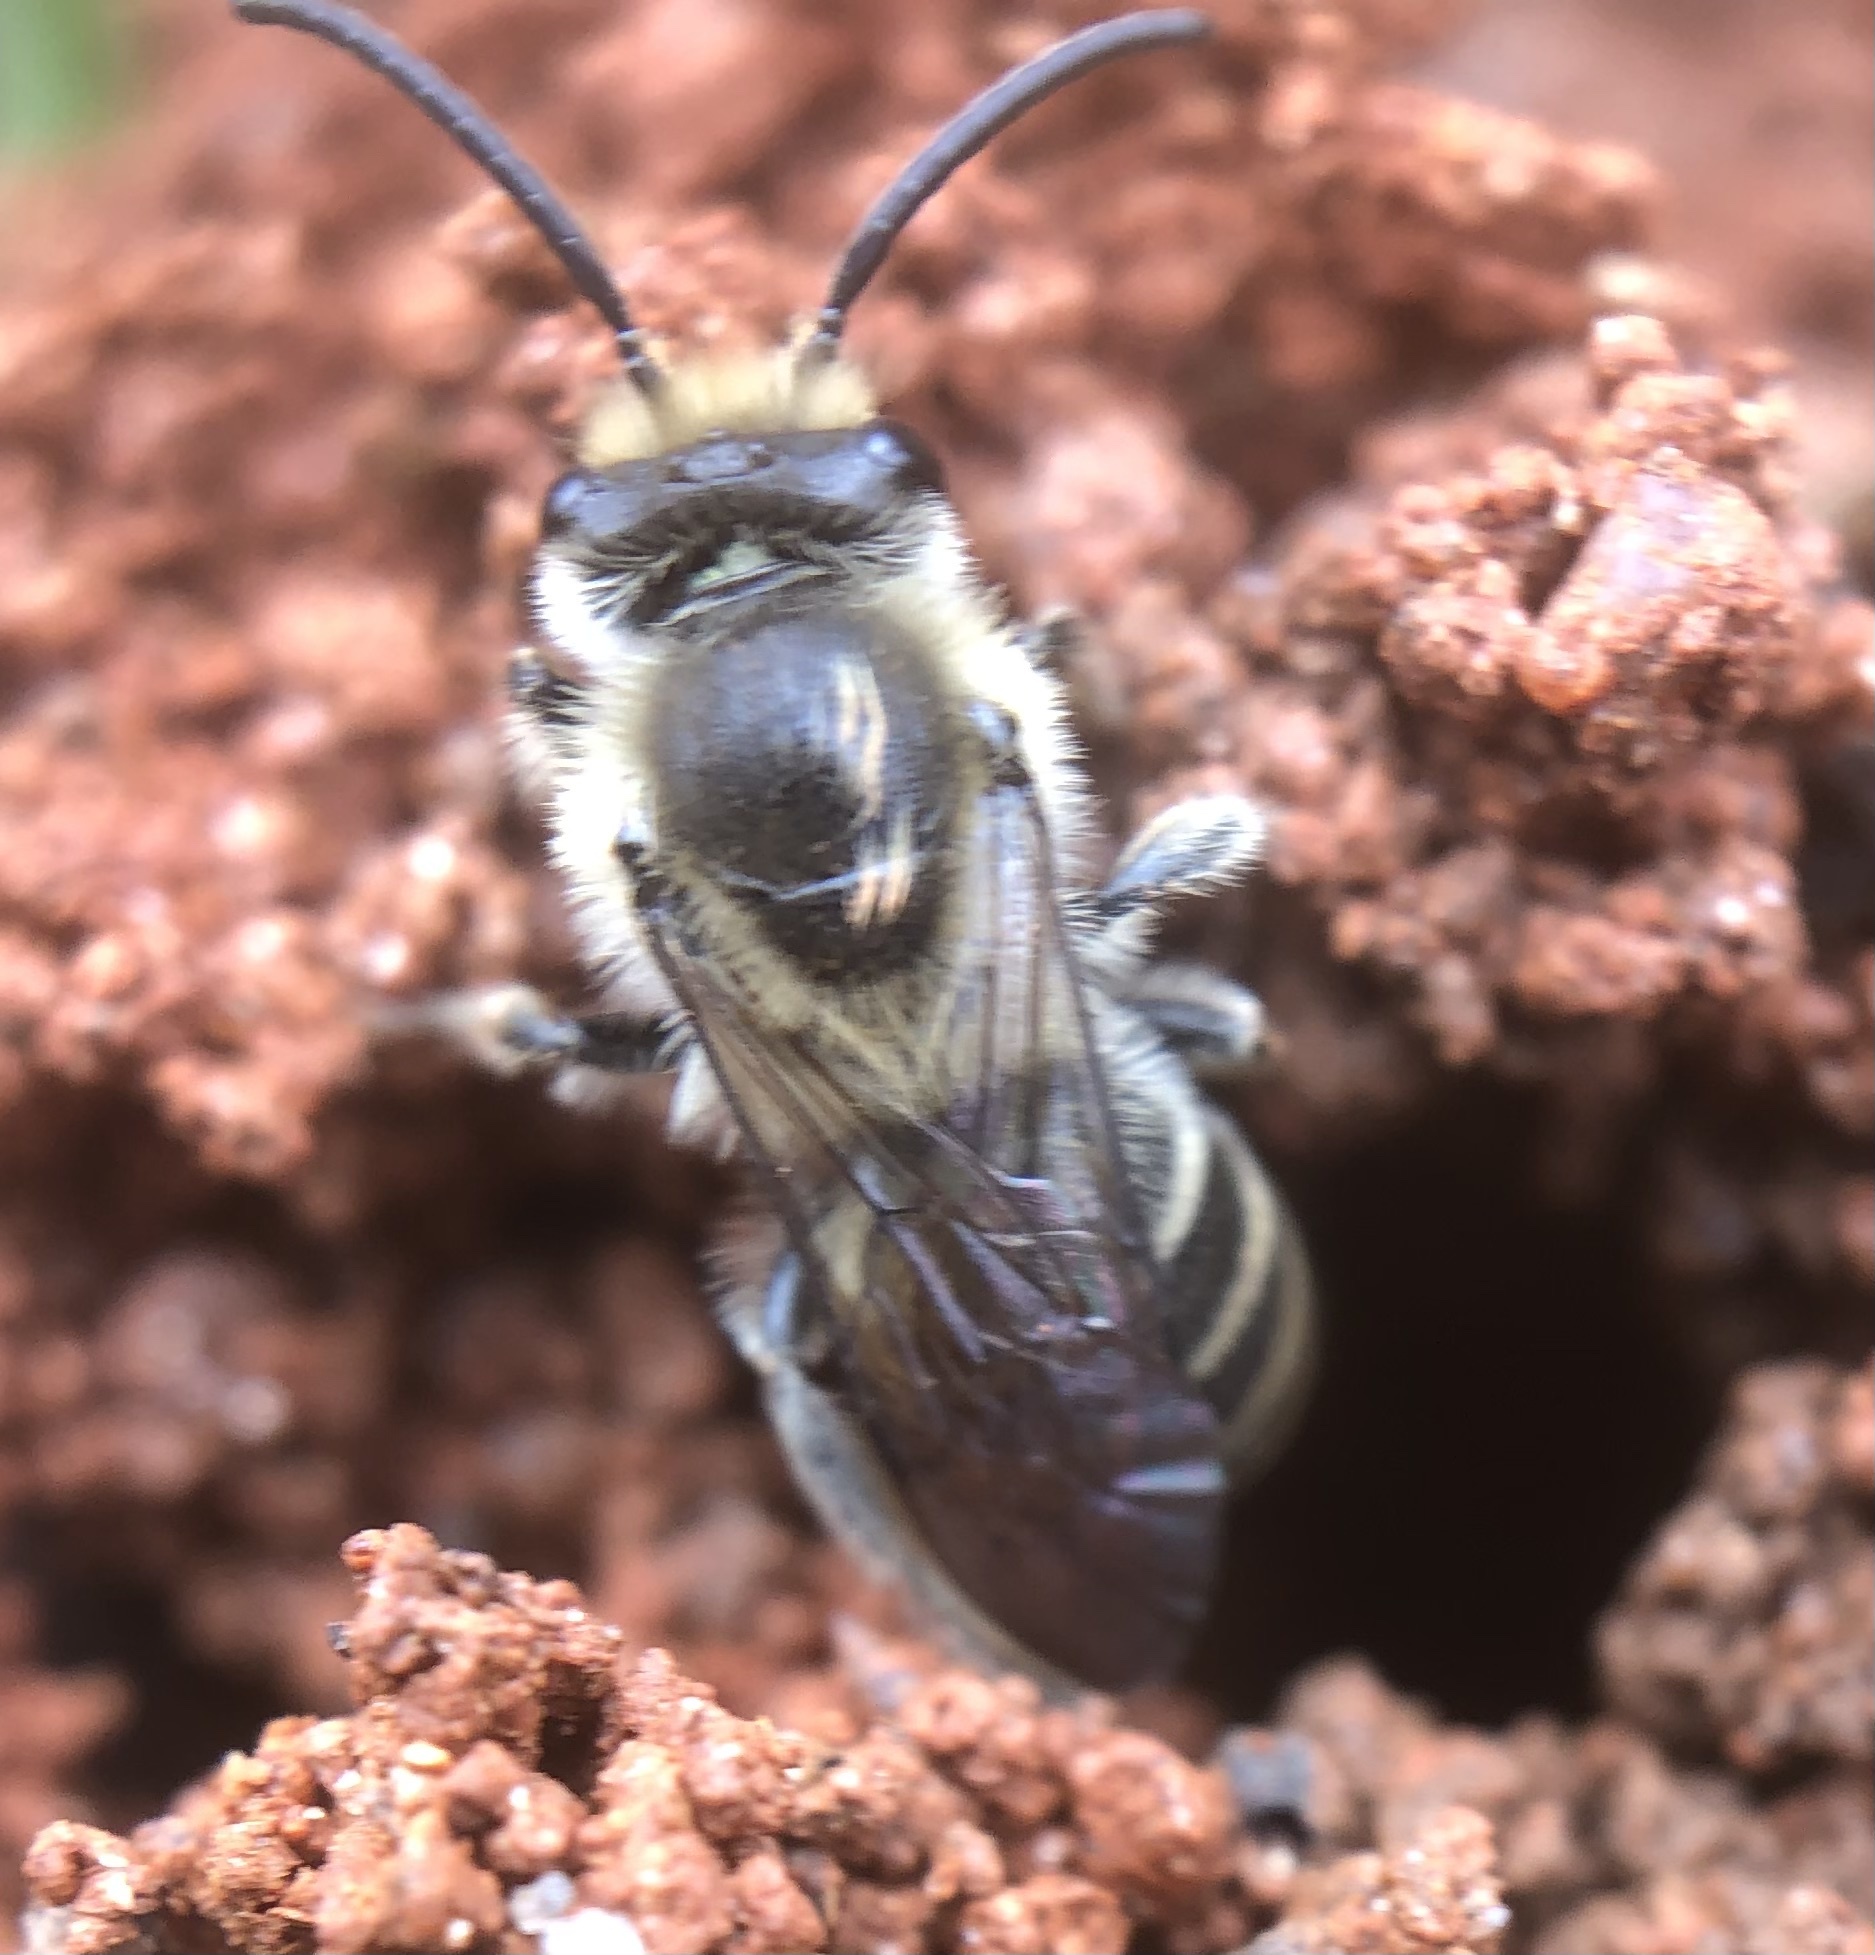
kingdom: Animalia
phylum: Arthropoda
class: Insecta
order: Hymenoptera
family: Colletidae
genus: Colletes
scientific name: Colletes inaequalis
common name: Unequal cellophane bee
